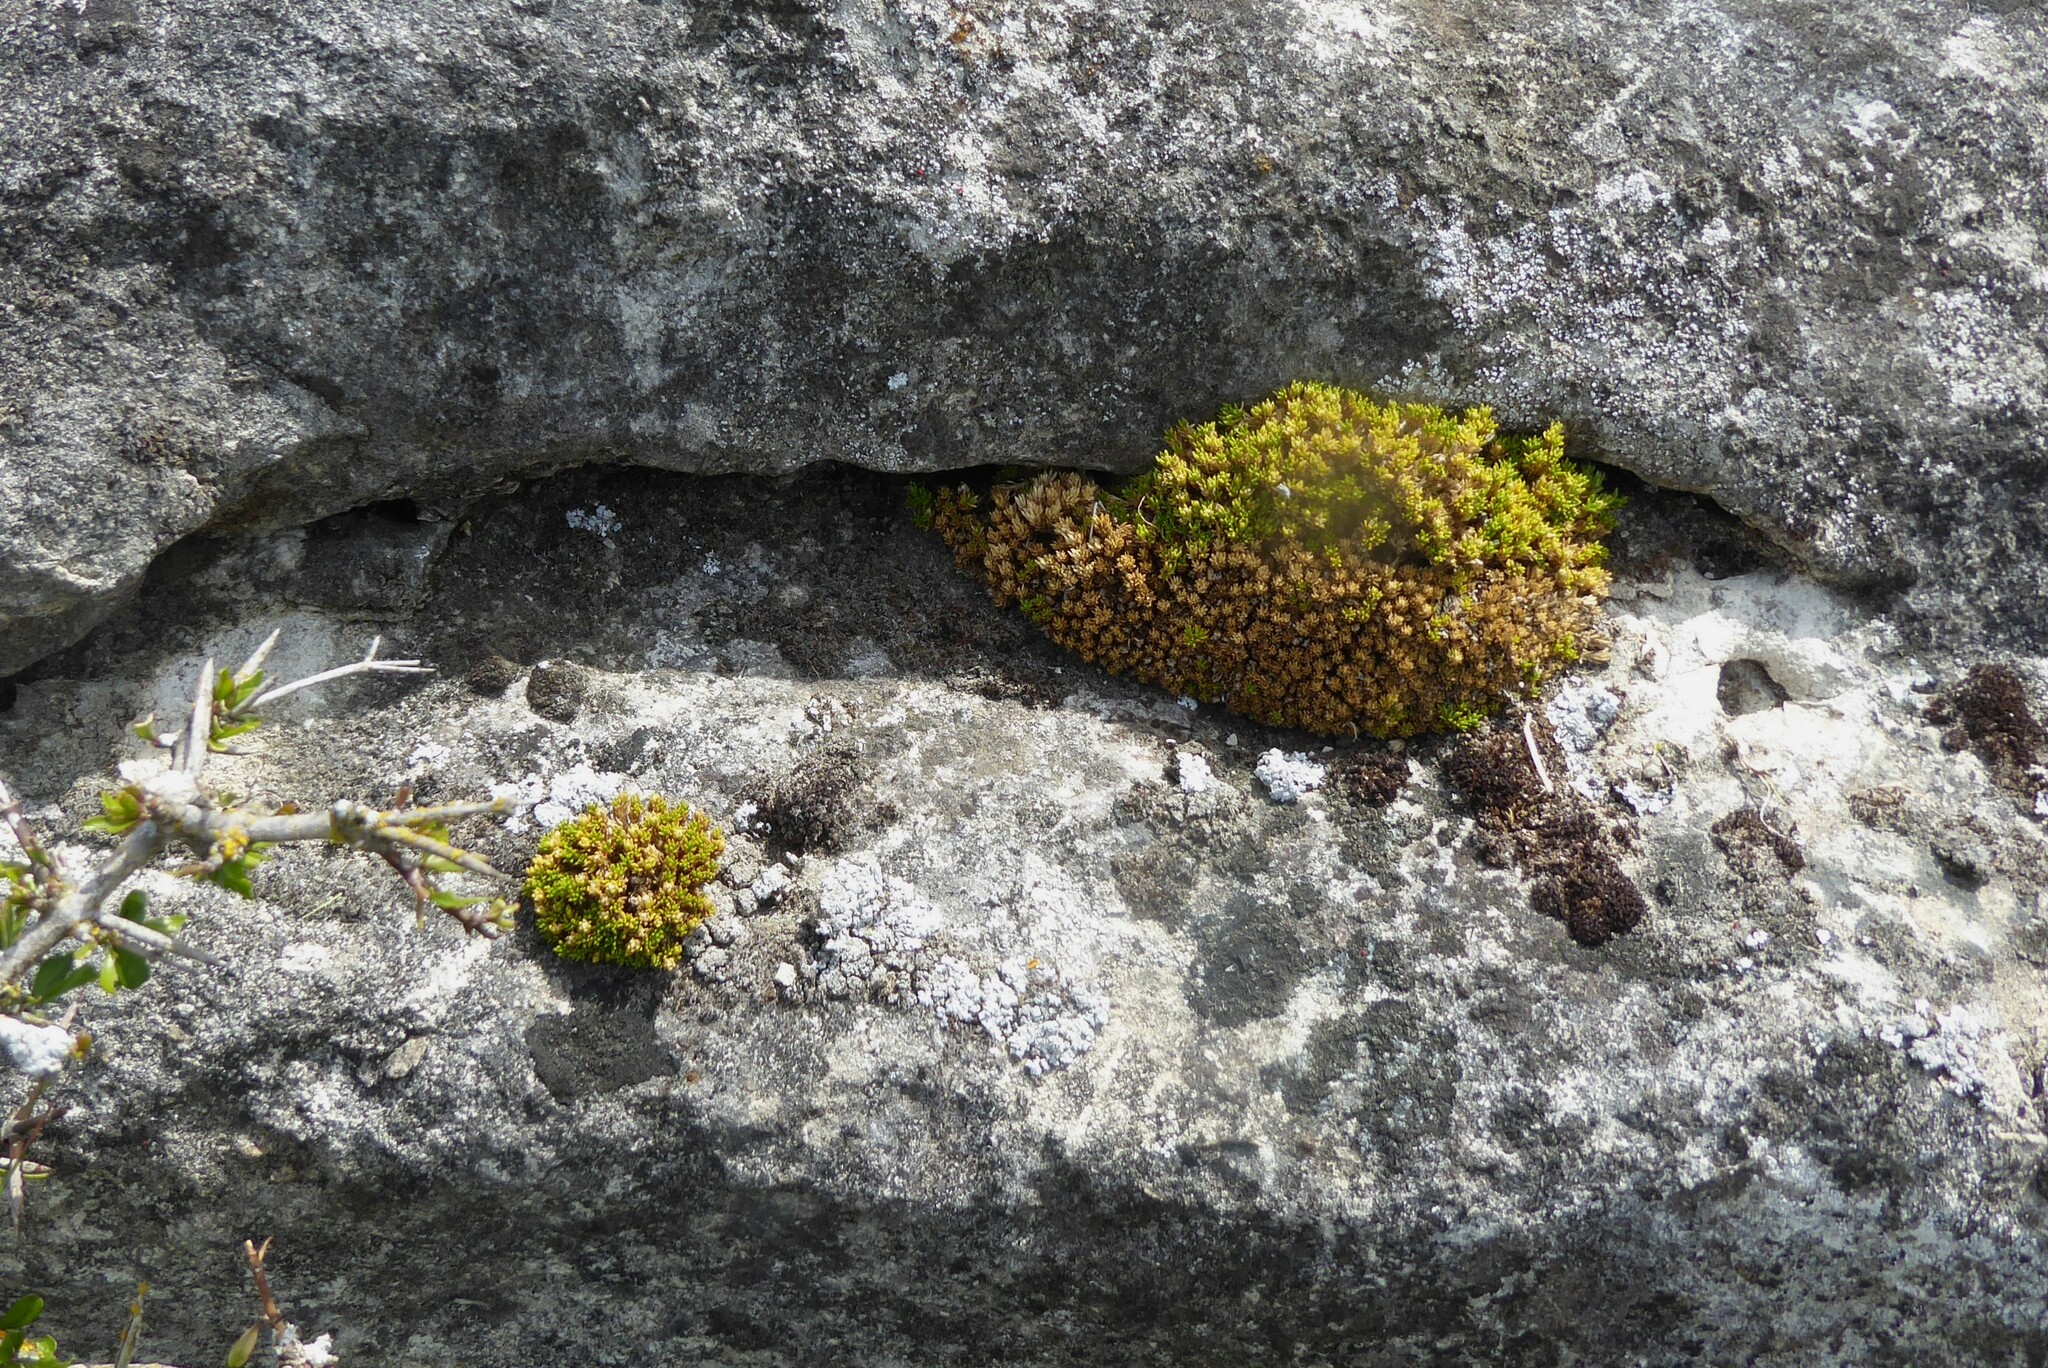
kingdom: Plantae
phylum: Tracheophyta
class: Magnoliopsida
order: Caryophyllales
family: Caryophyllaceae
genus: Colobanthus
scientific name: Colobanthus brevisepalus
